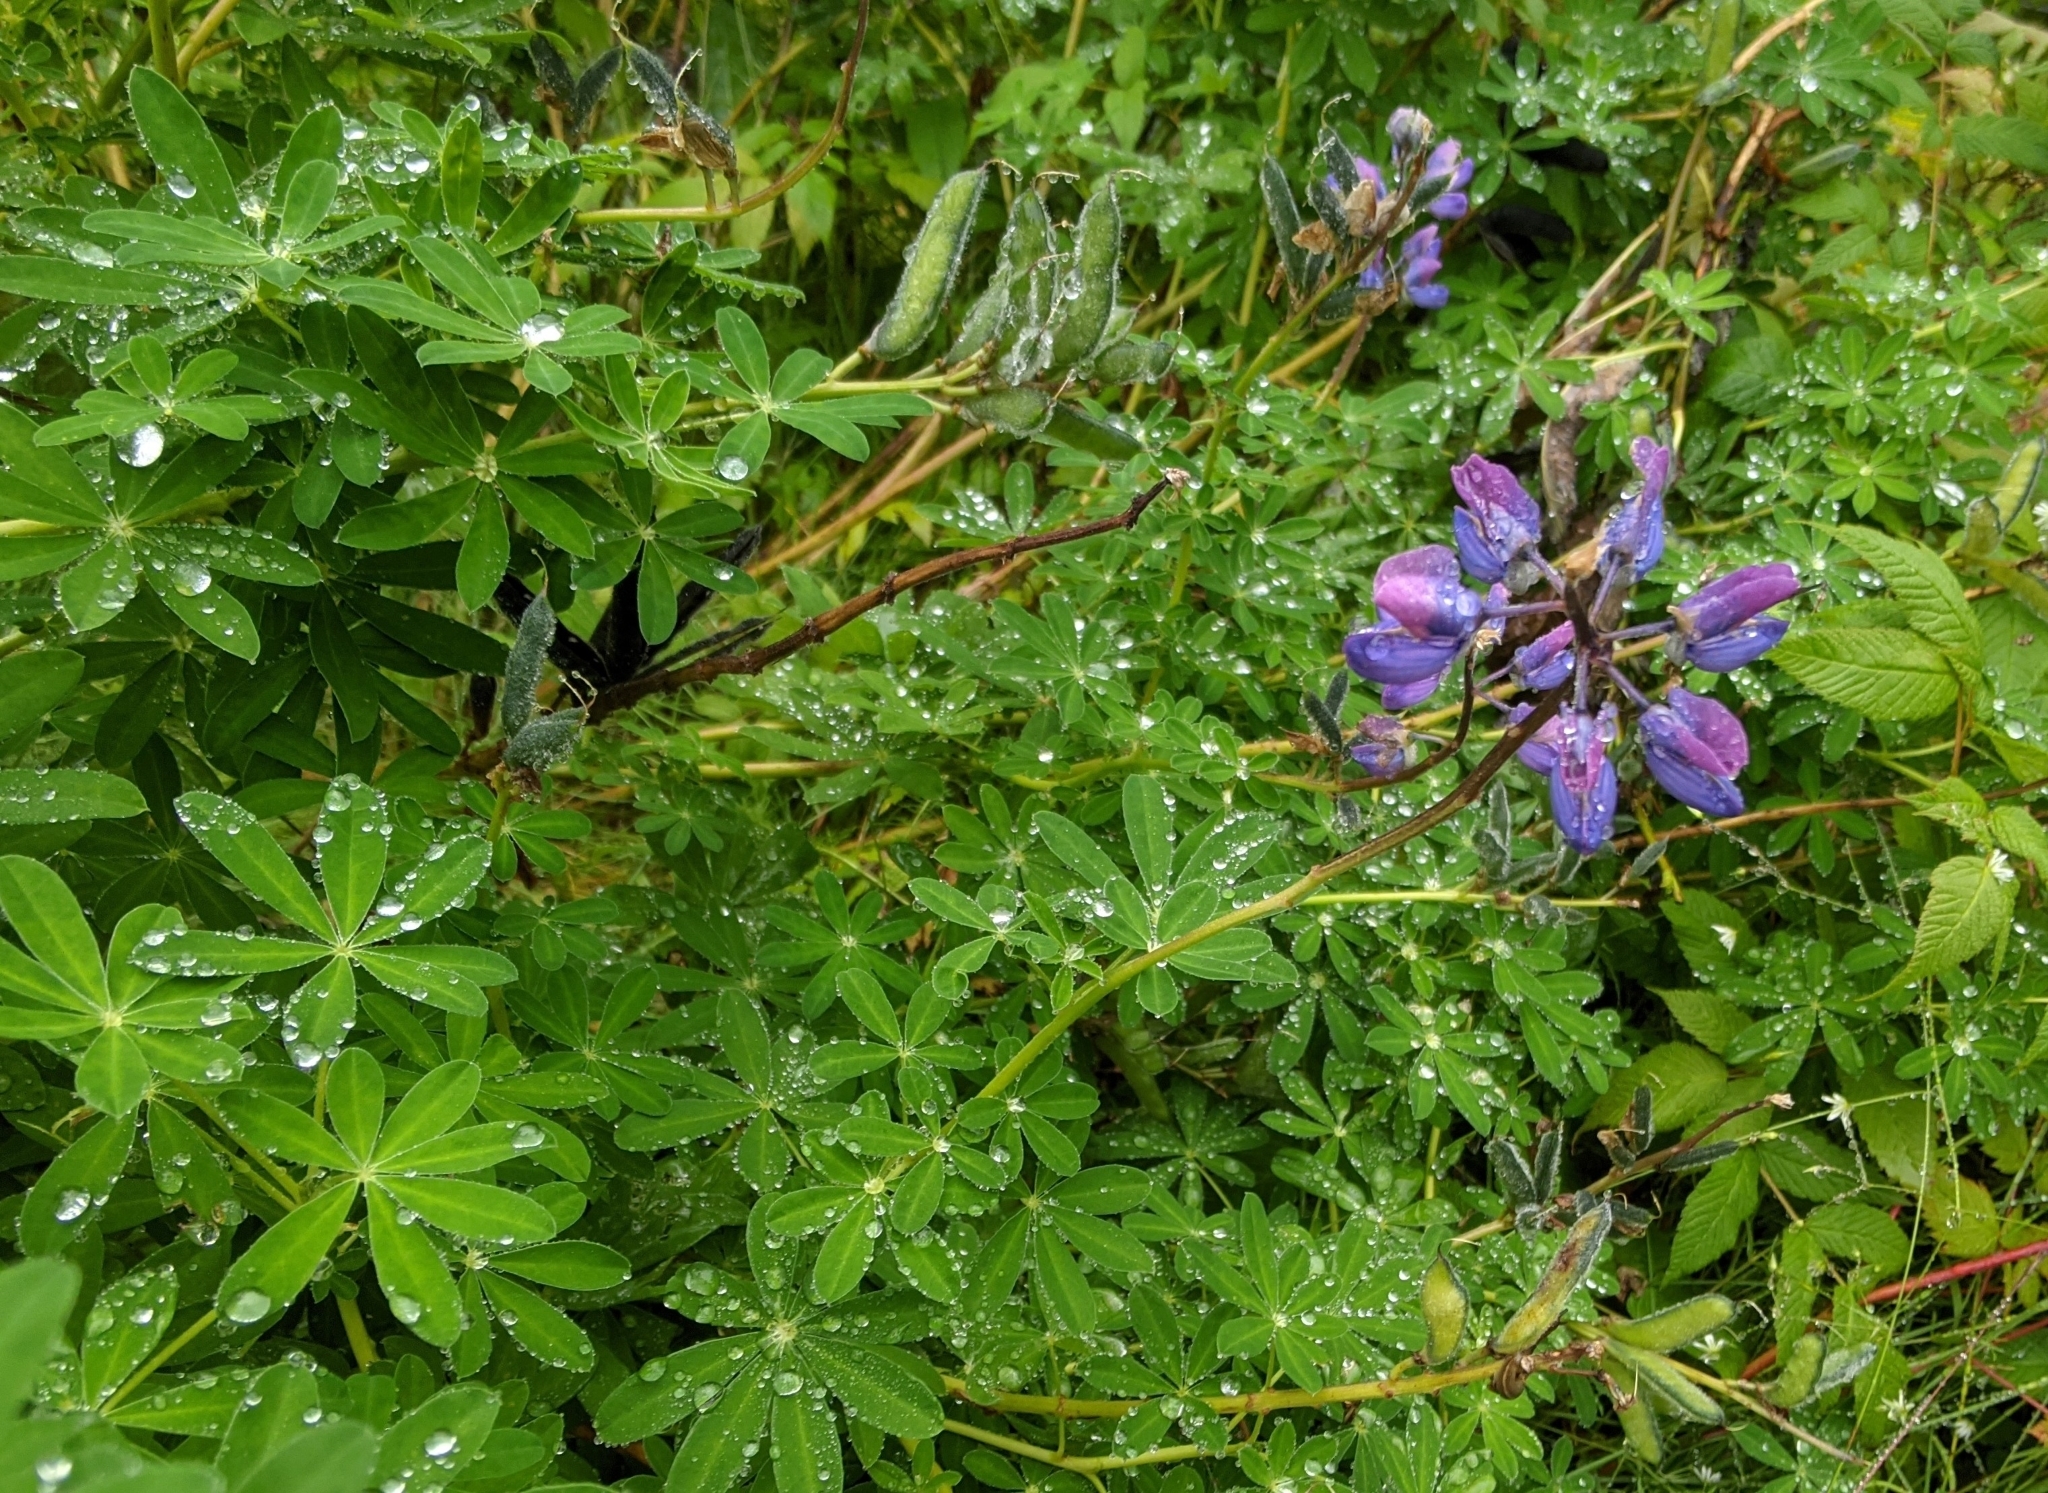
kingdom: Plantae
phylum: Tracheophyta
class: Magnoliopsida
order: Fabales
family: Fabaceae
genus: Lupinus
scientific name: Lupinus nootkatensis
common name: Nootka lupine
